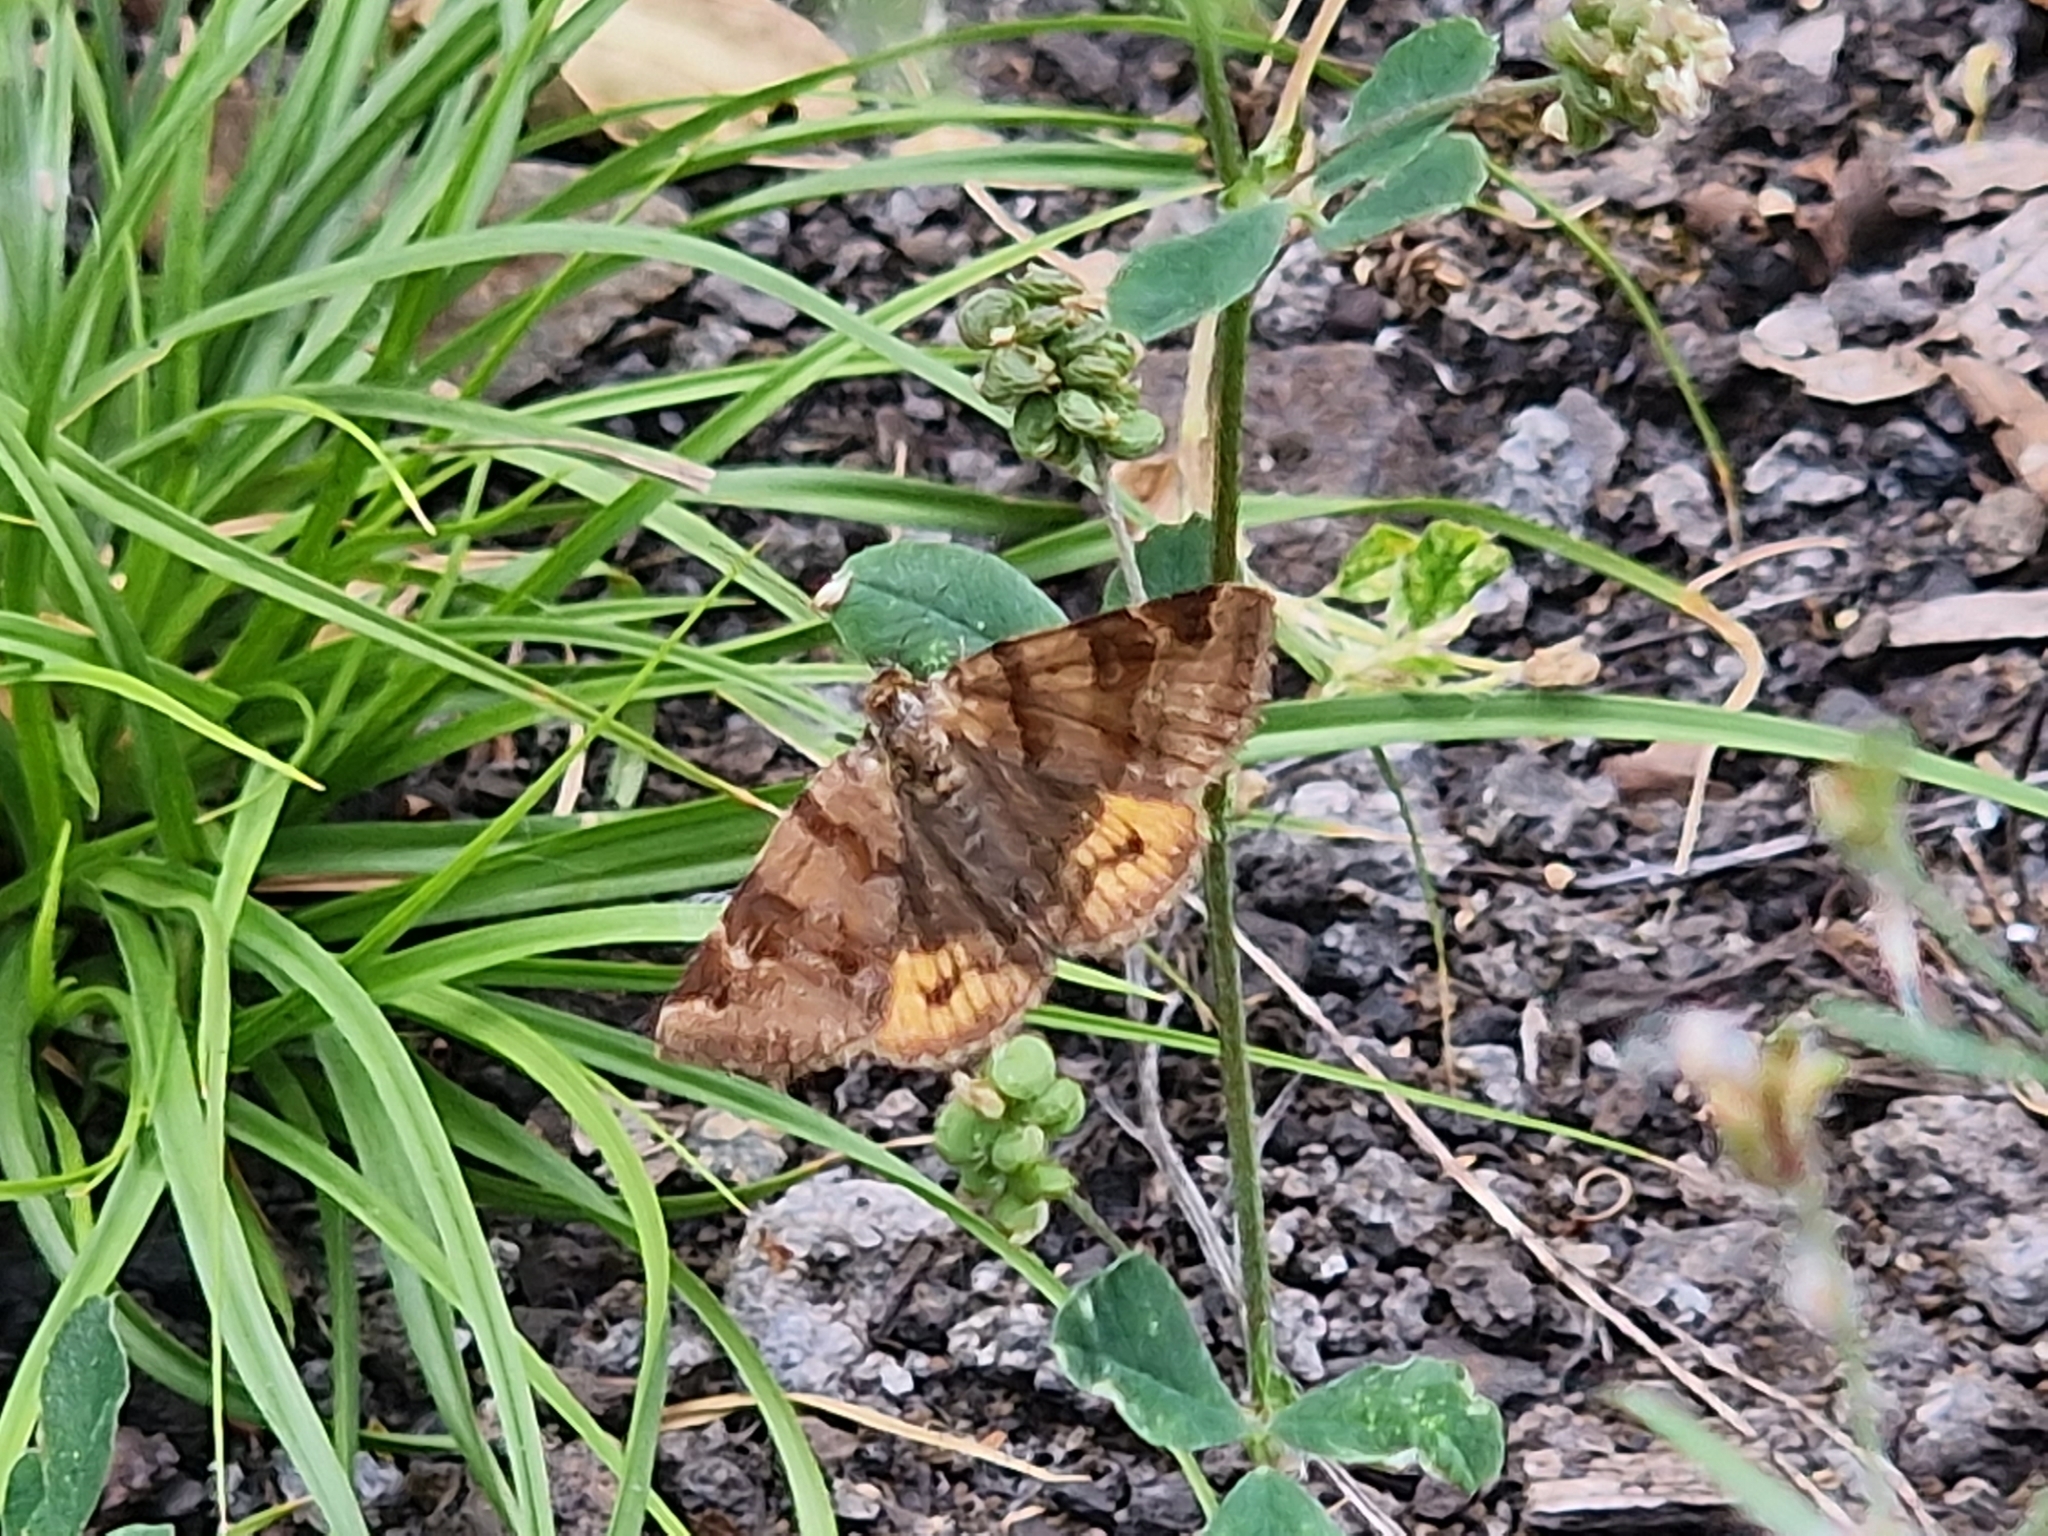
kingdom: Animalia
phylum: Arthropoda
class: Insecta
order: Lepidoptera
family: Erebidae
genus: Euclidia
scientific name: Euclidia glyphica
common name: Burnet companion
